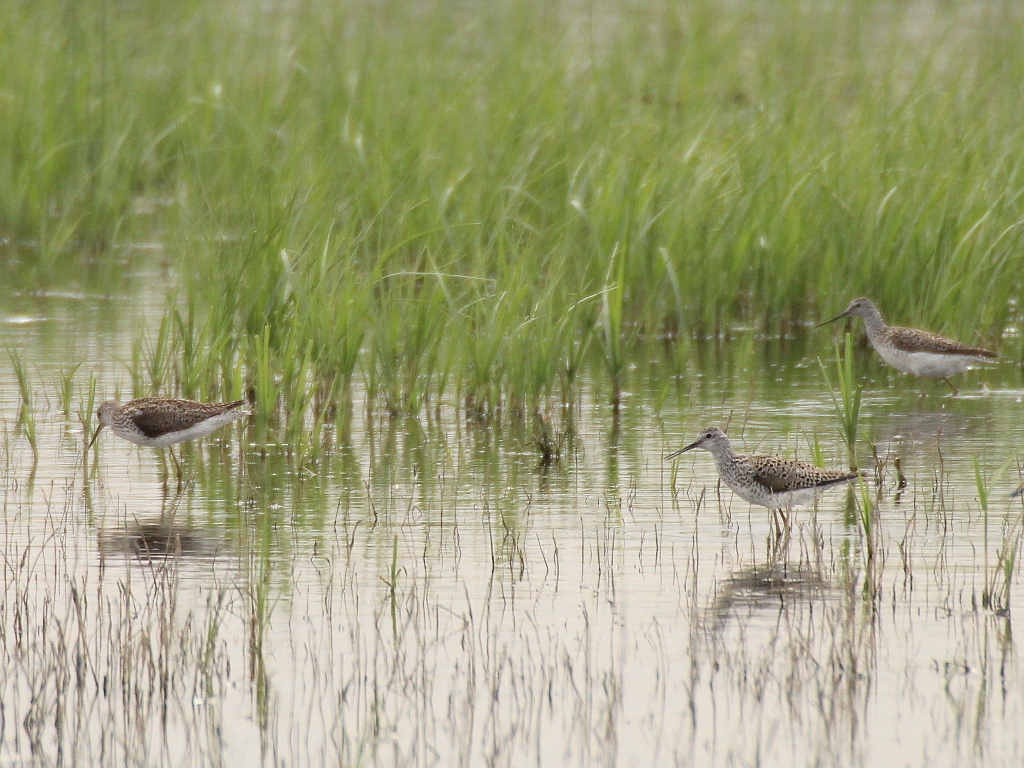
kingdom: Animalia
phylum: Chordata
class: Aves
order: Charadriiformes
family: Scolopacidae
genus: Tringa
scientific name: Tringa stagnatilis
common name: Marsh sandpiper
